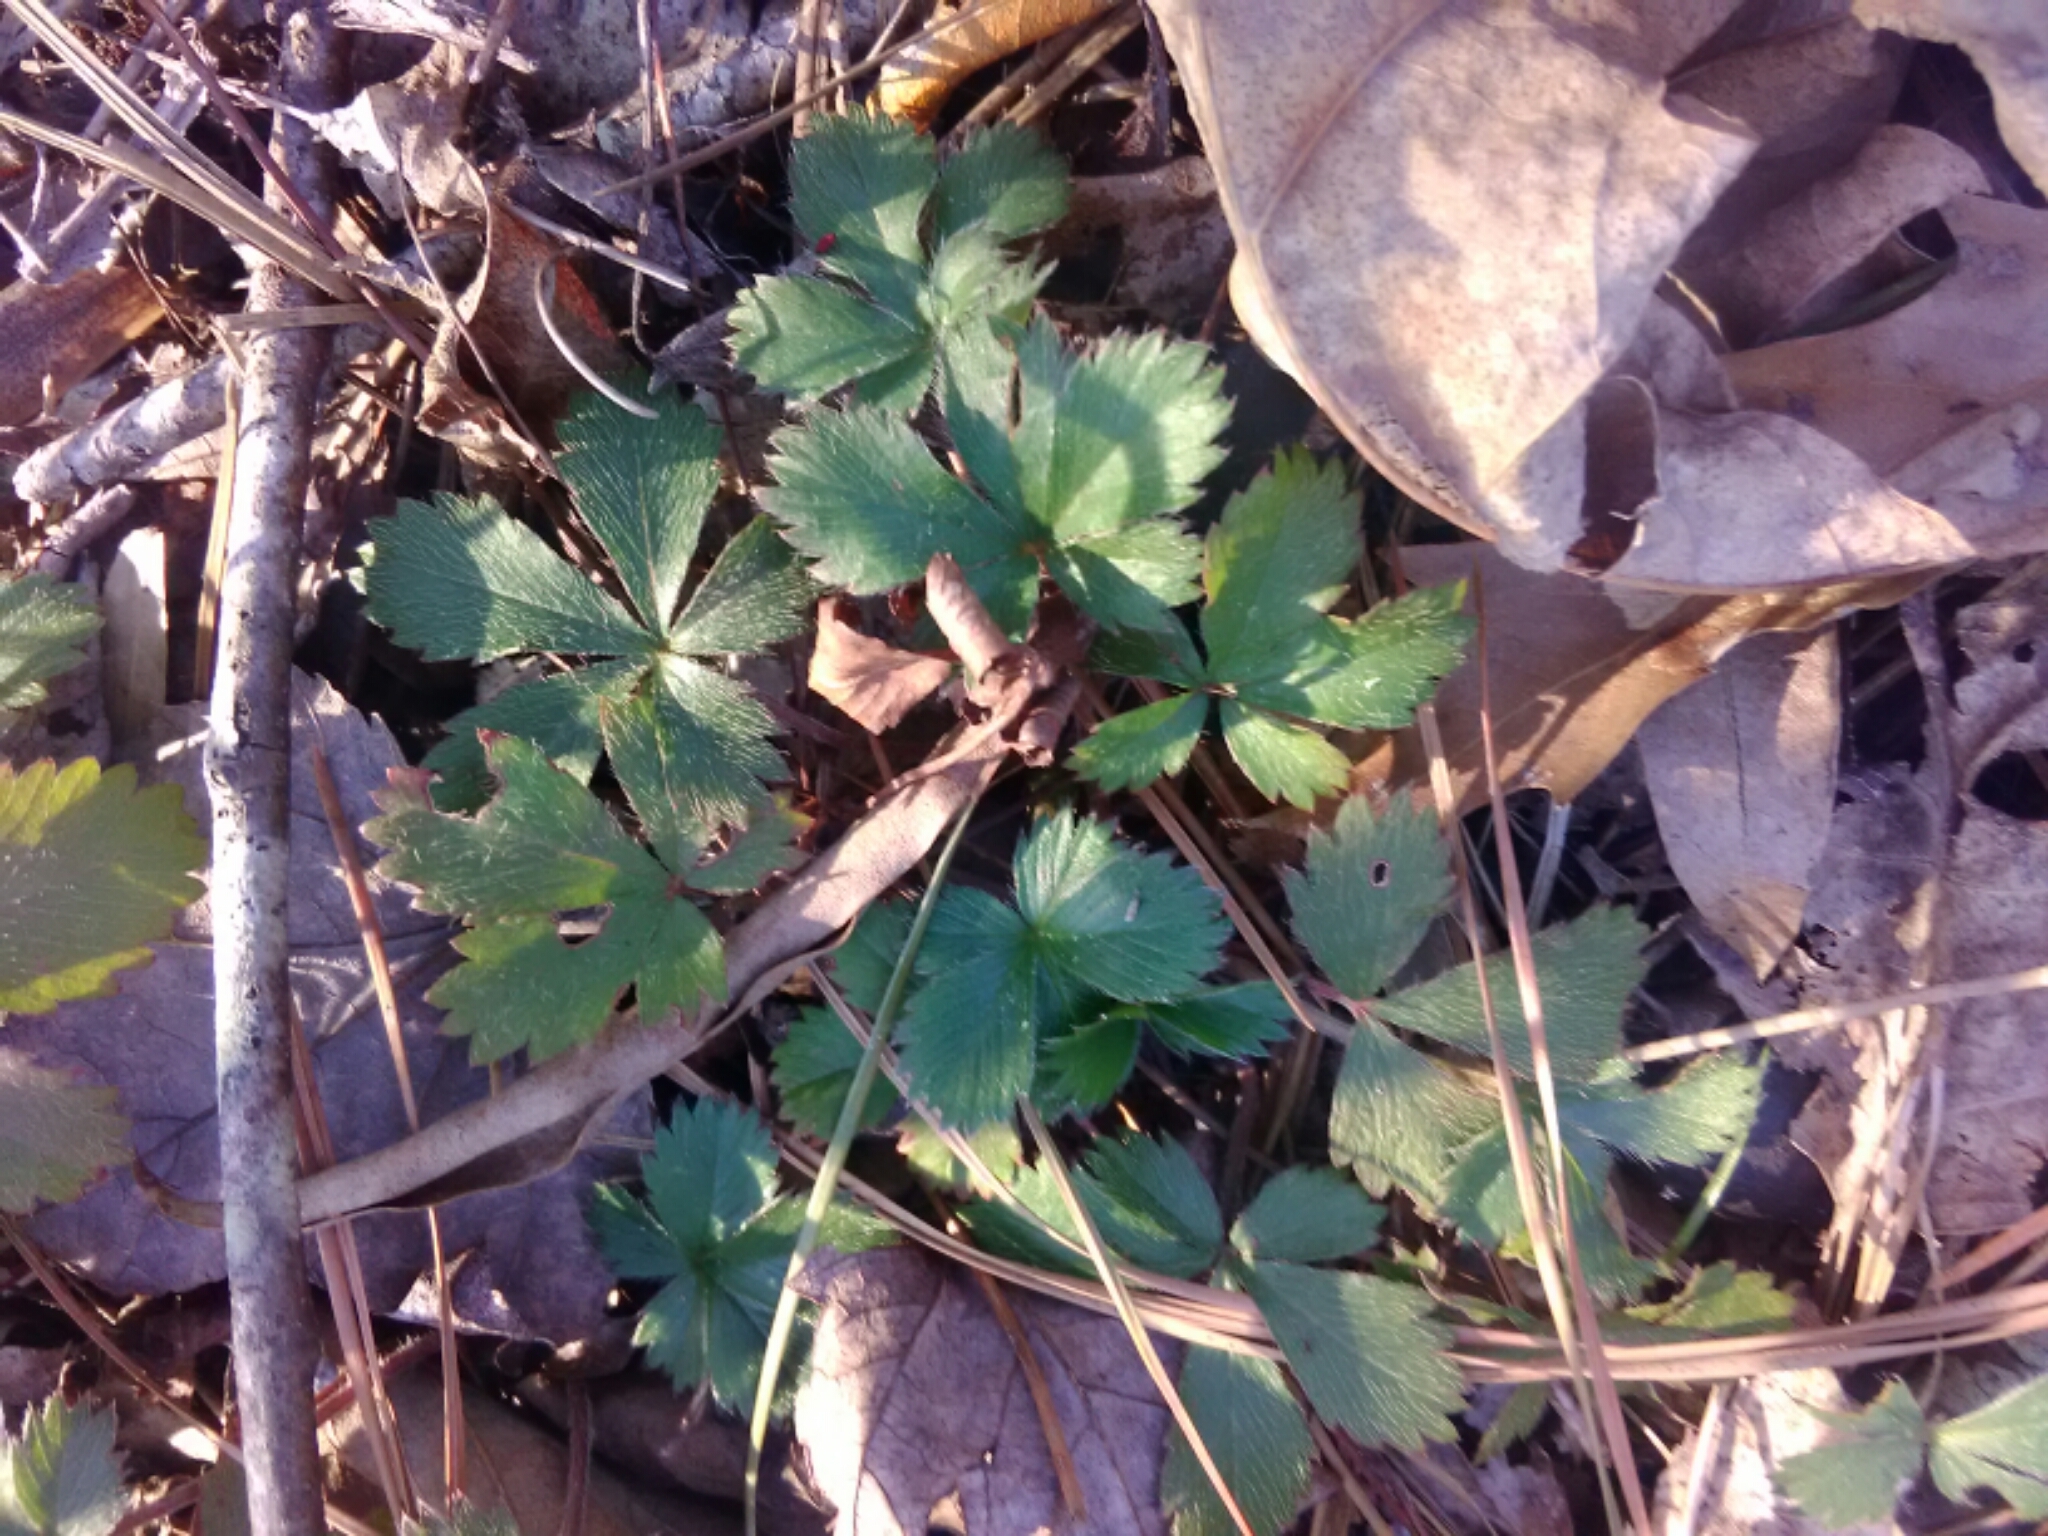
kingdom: Plantae
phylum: Tracheophyta
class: Magnoliopsida
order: Rosales
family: Rosaceae
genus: Potentilla
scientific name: Potentilla canadensis
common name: Canada cinquefoil
